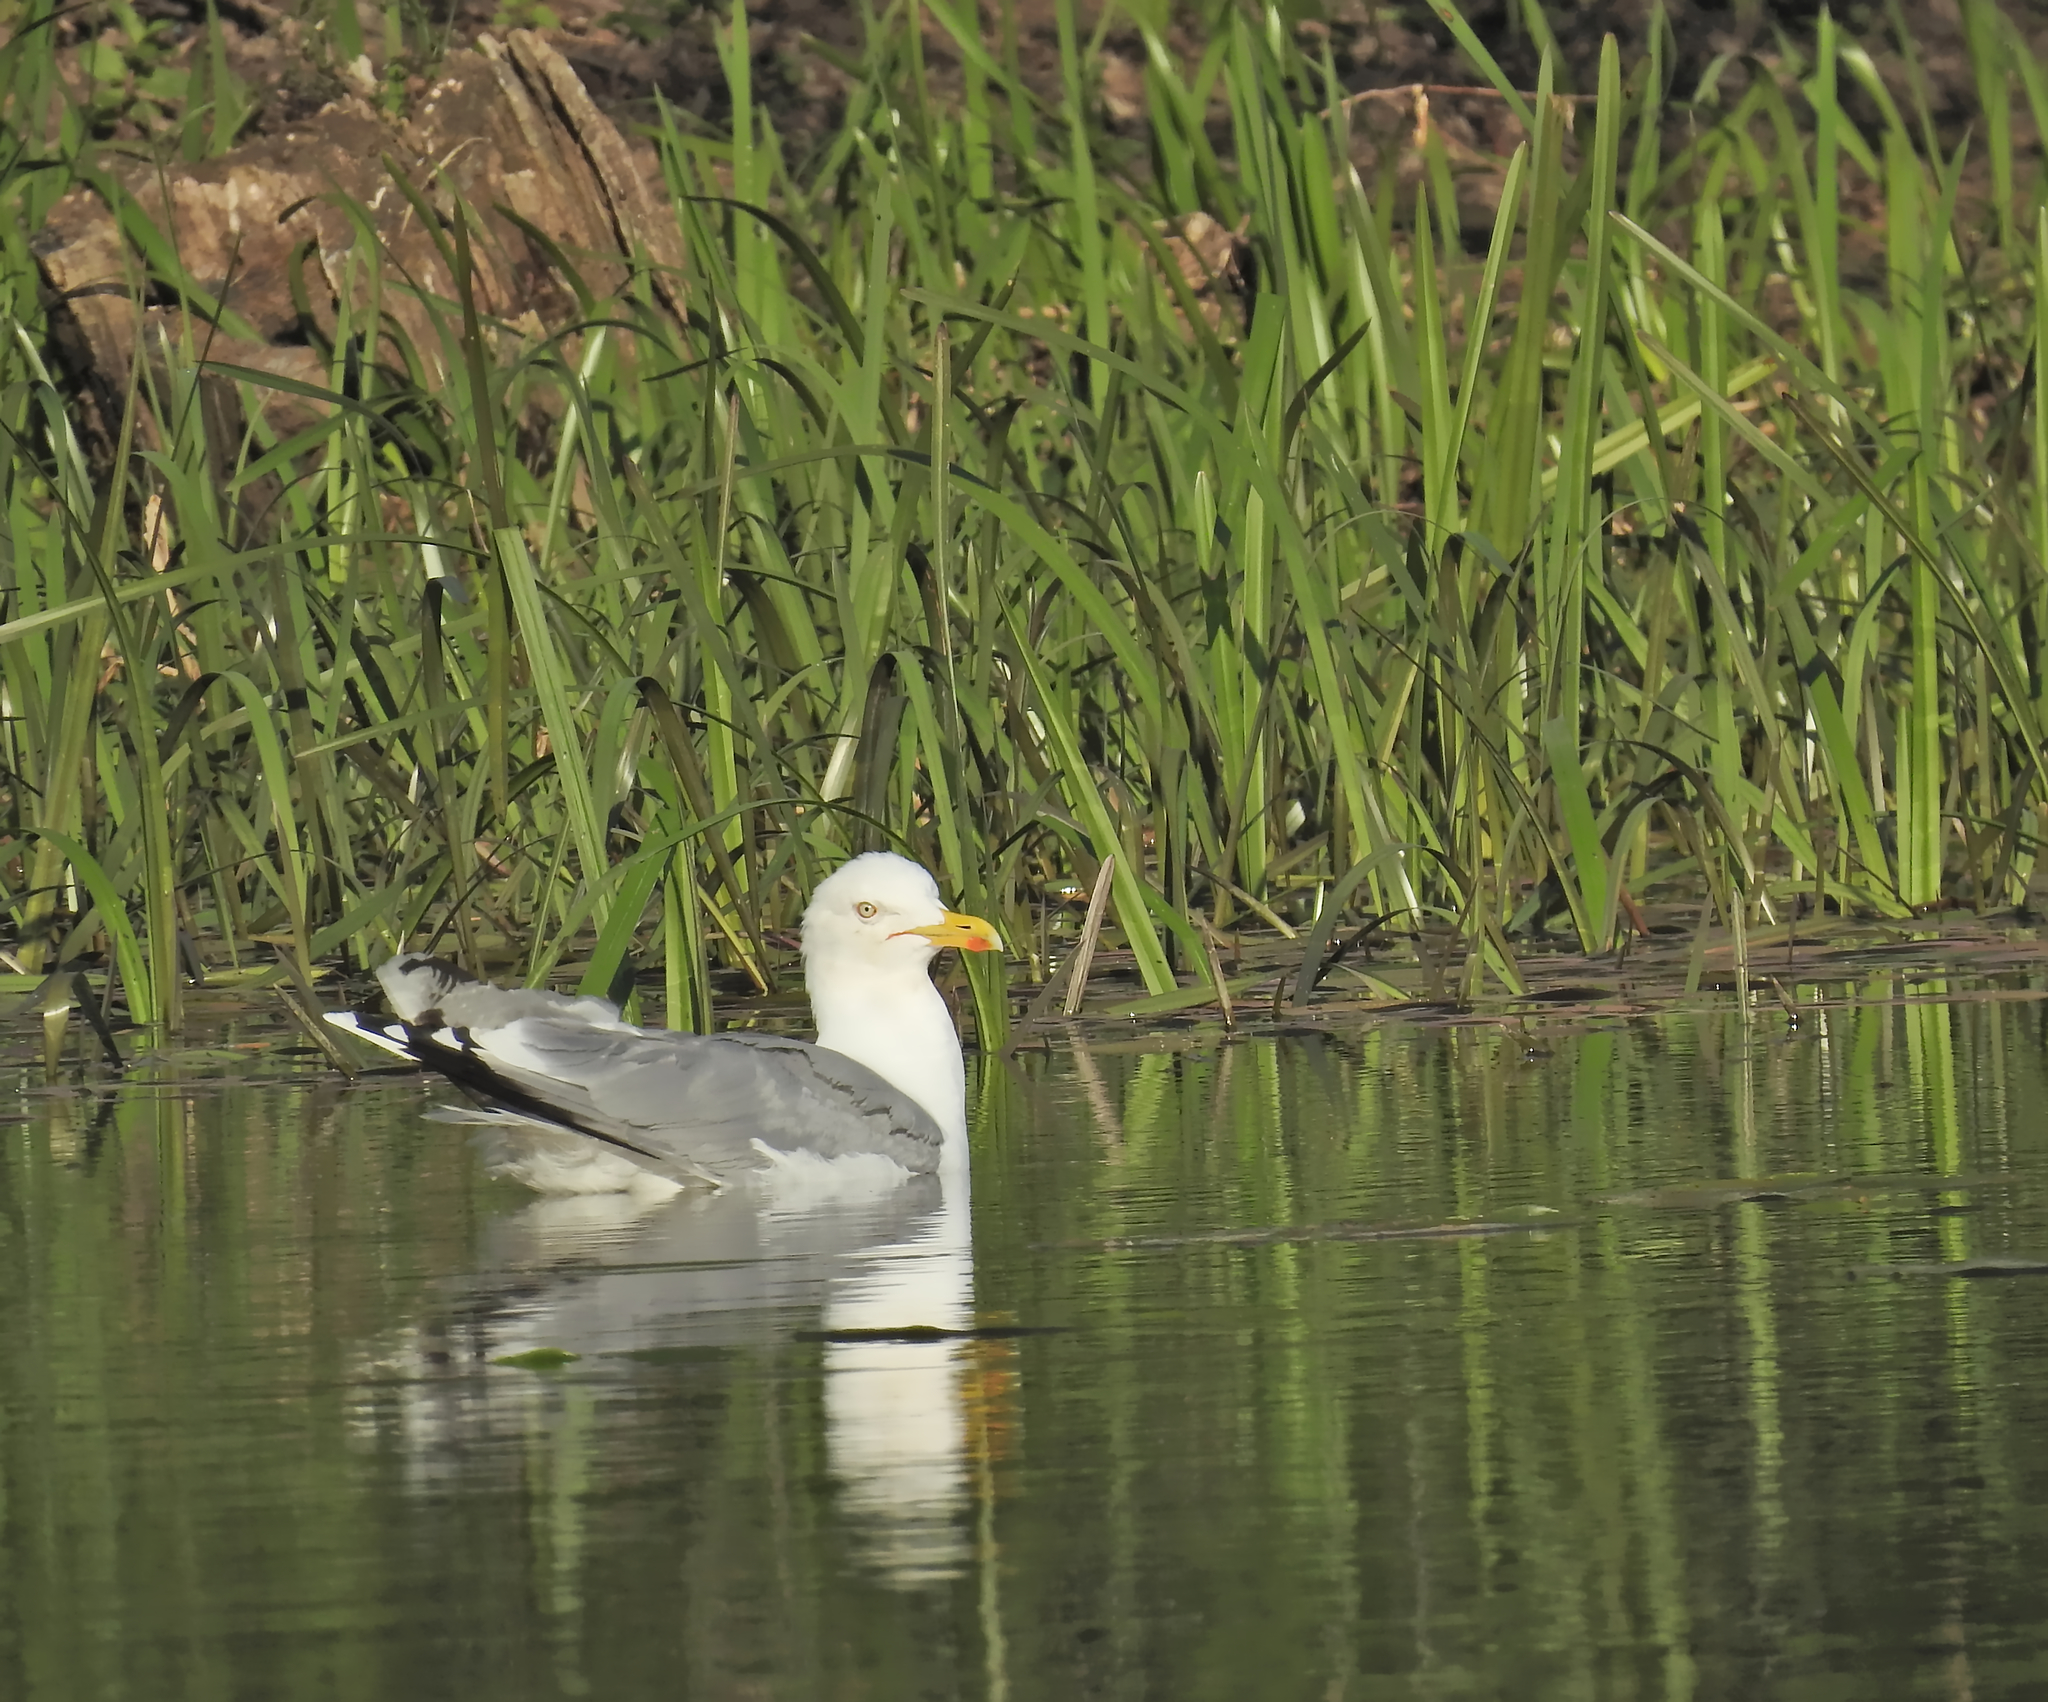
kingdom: Animalia
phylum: Chordata
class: Aves
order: Charadriiformes
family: Laridae
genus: Larus
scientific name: Larus argentatus
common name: Herring gull
